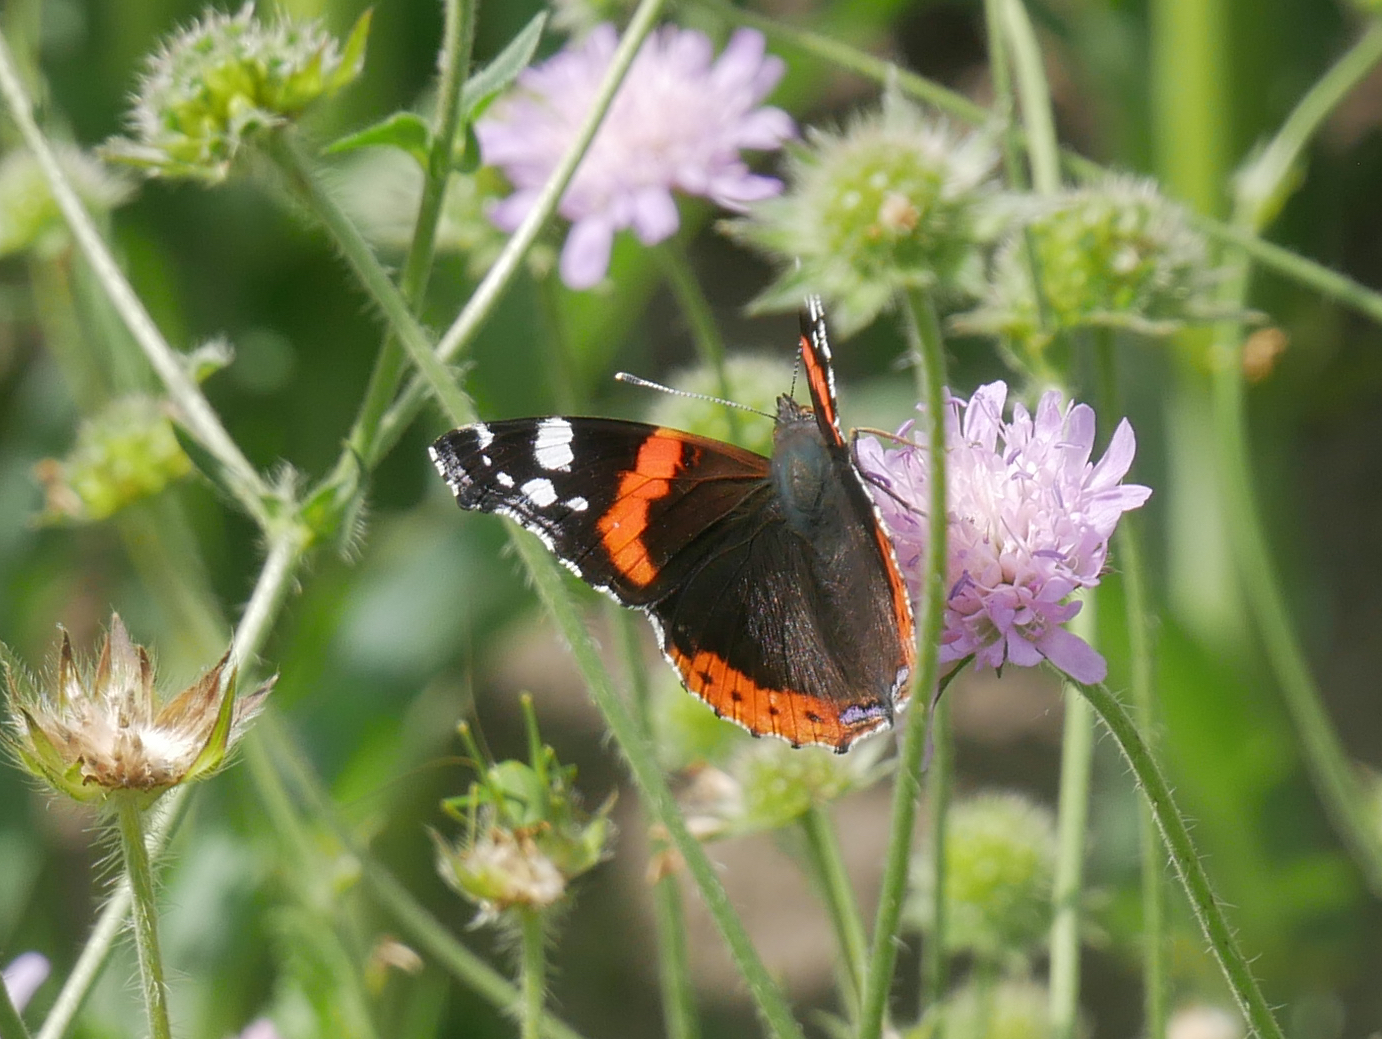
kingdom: Animalia
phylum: Arthropoda
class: Insecta
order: Lepidoptera
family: Nymphalidae
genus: Vanessa
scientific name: Vanessa atalanta
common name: Red admiral
